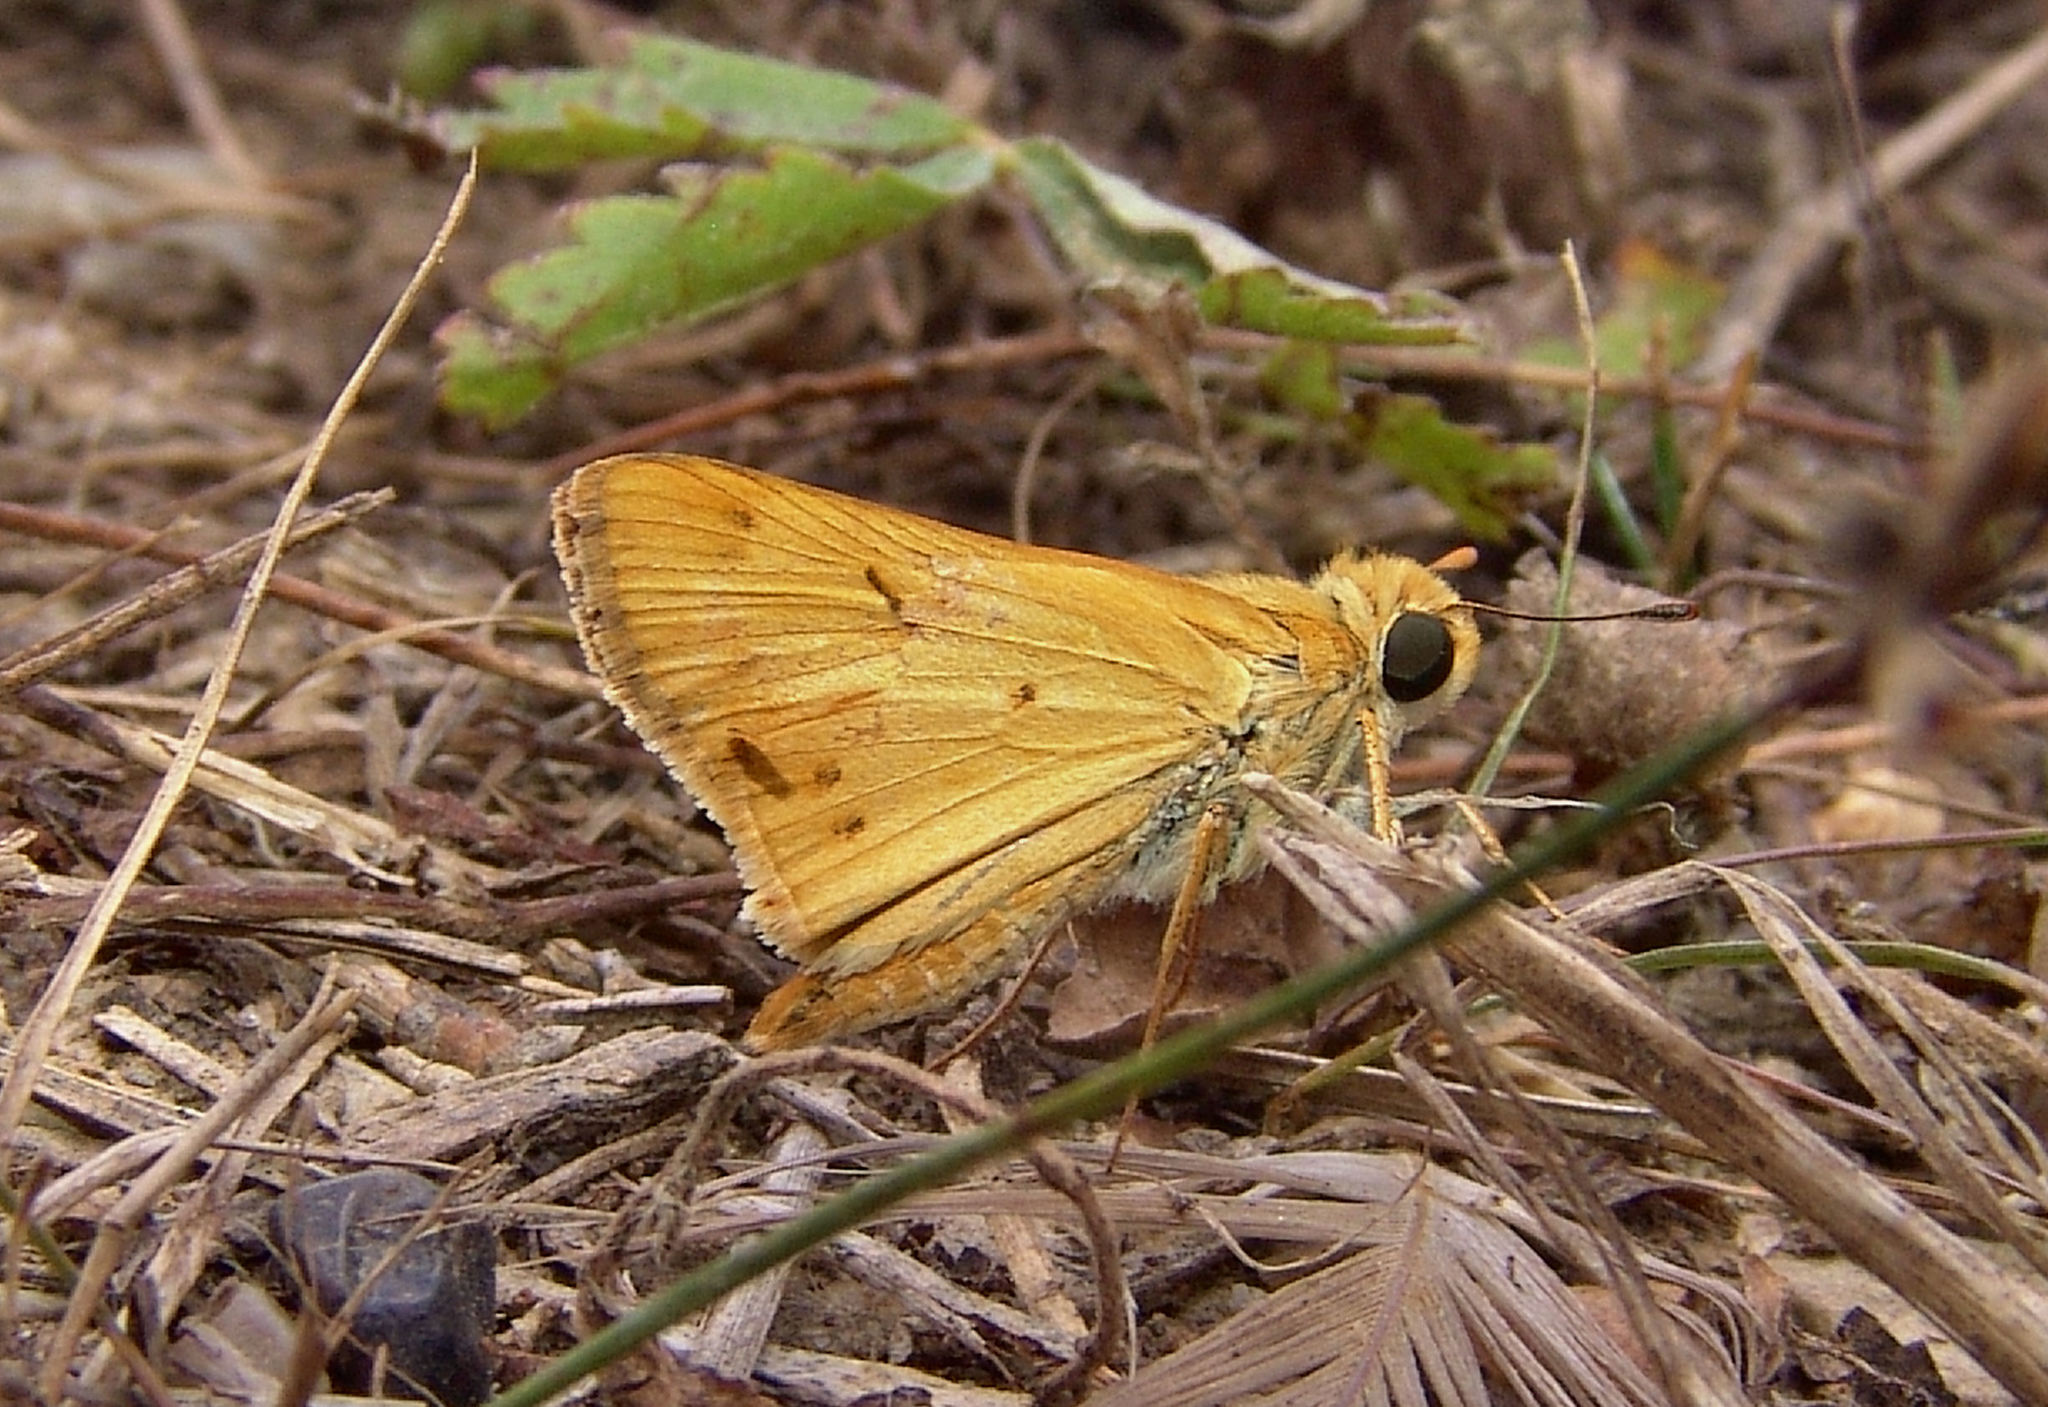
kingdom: Animalia
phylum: Arthropoda
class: Insecta
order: Lepidoptera
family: Hesperiidae
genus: Hylephila
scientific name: Hylephila phyleus
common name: Fiery skipper
